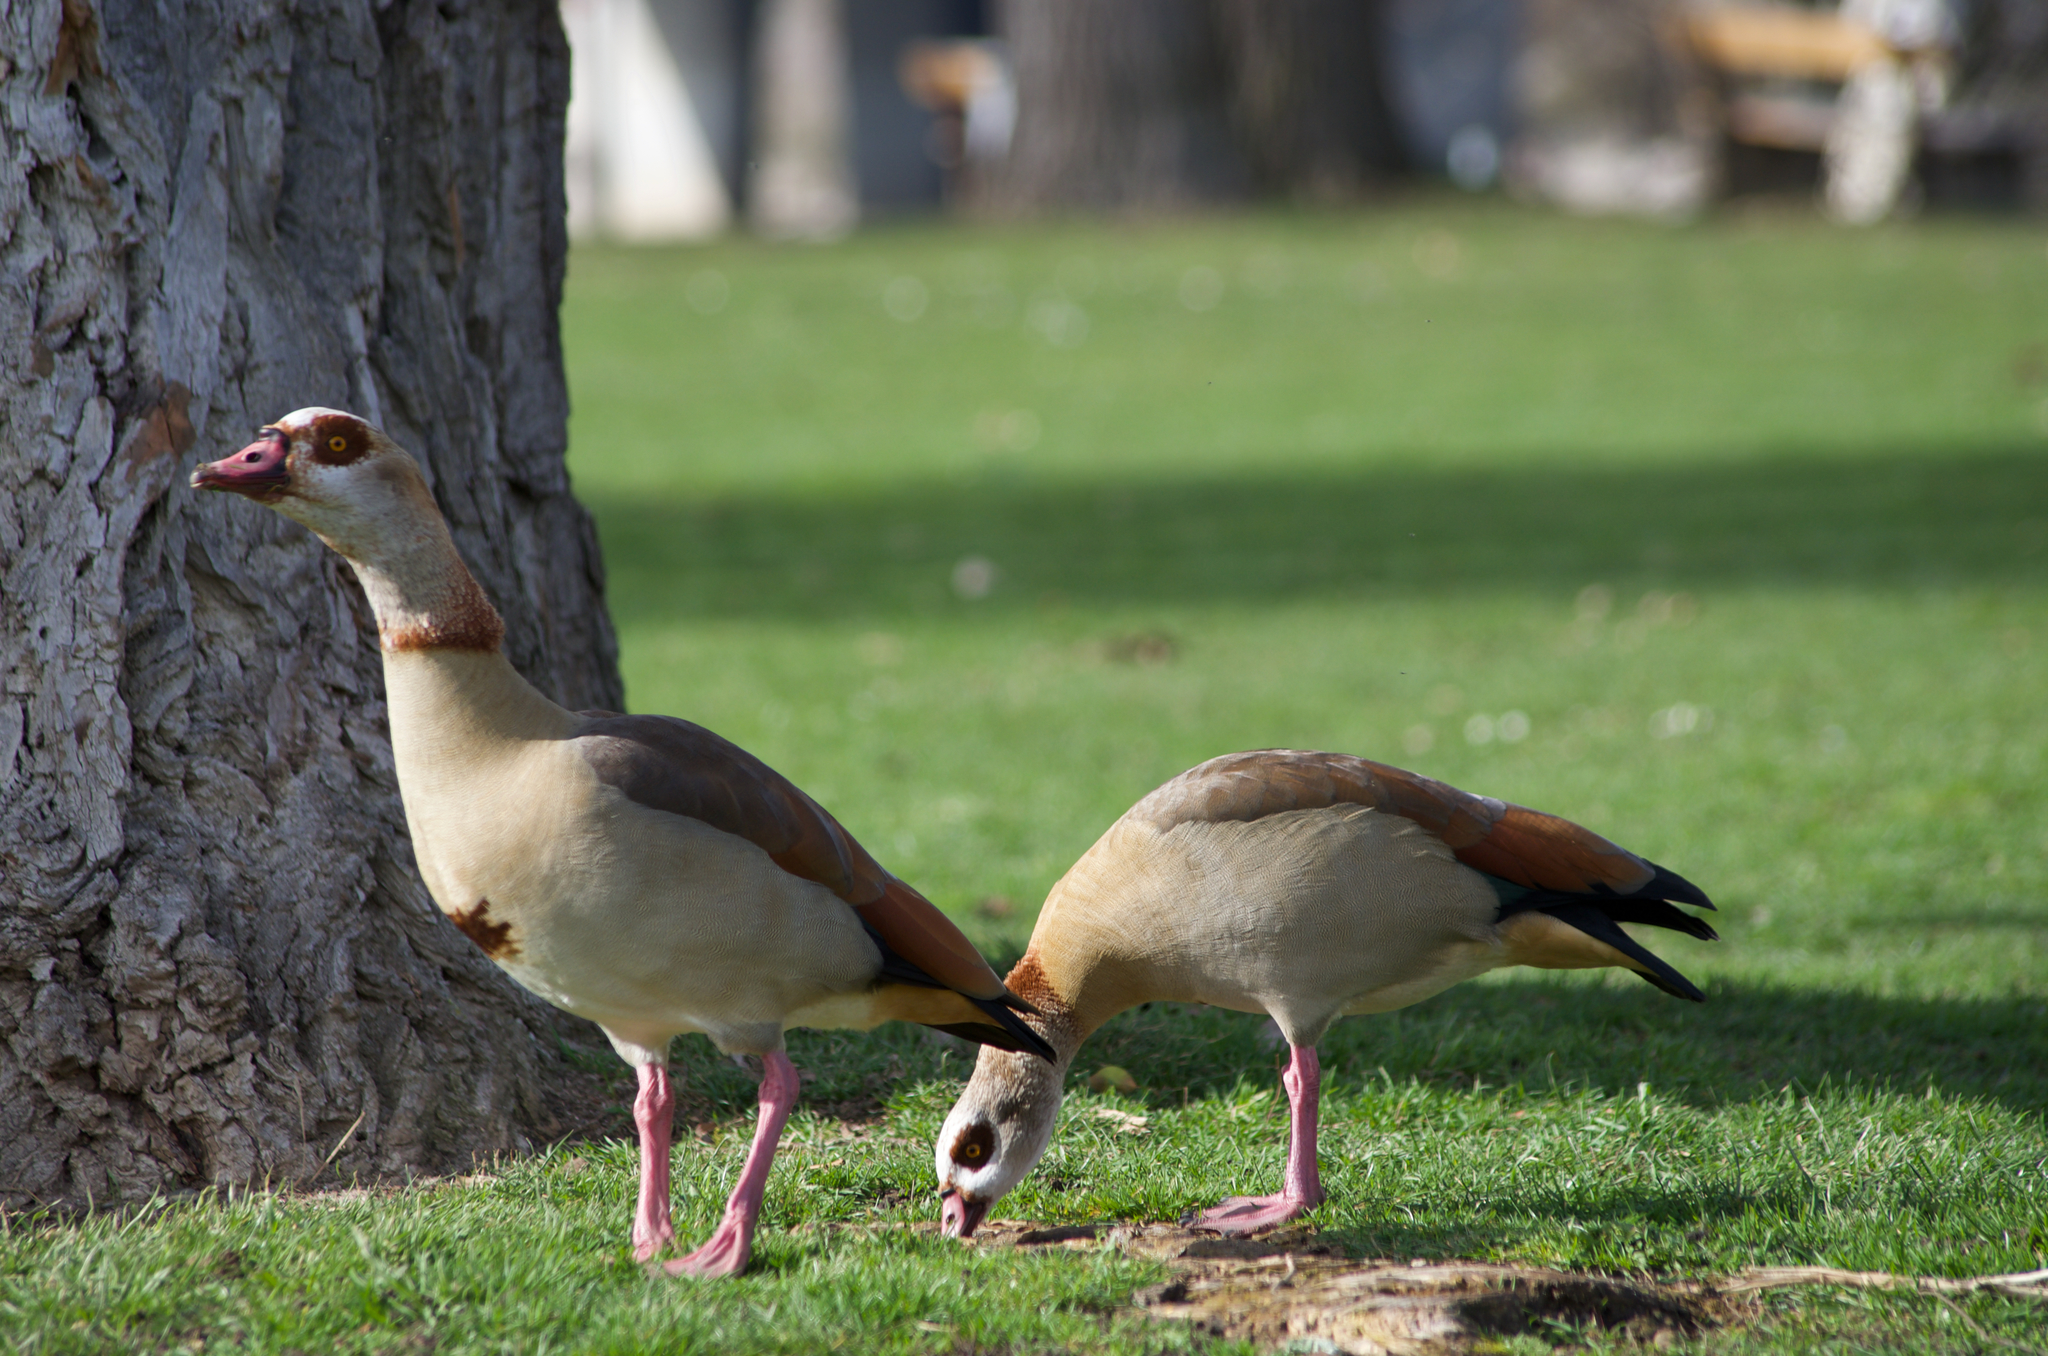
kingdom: Animalia
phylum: Chordata
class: Aves
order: Anseriformes
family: Anatidae
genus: Alopochen
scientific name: Alopochen aegyptiaca
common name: Egyptian goose
